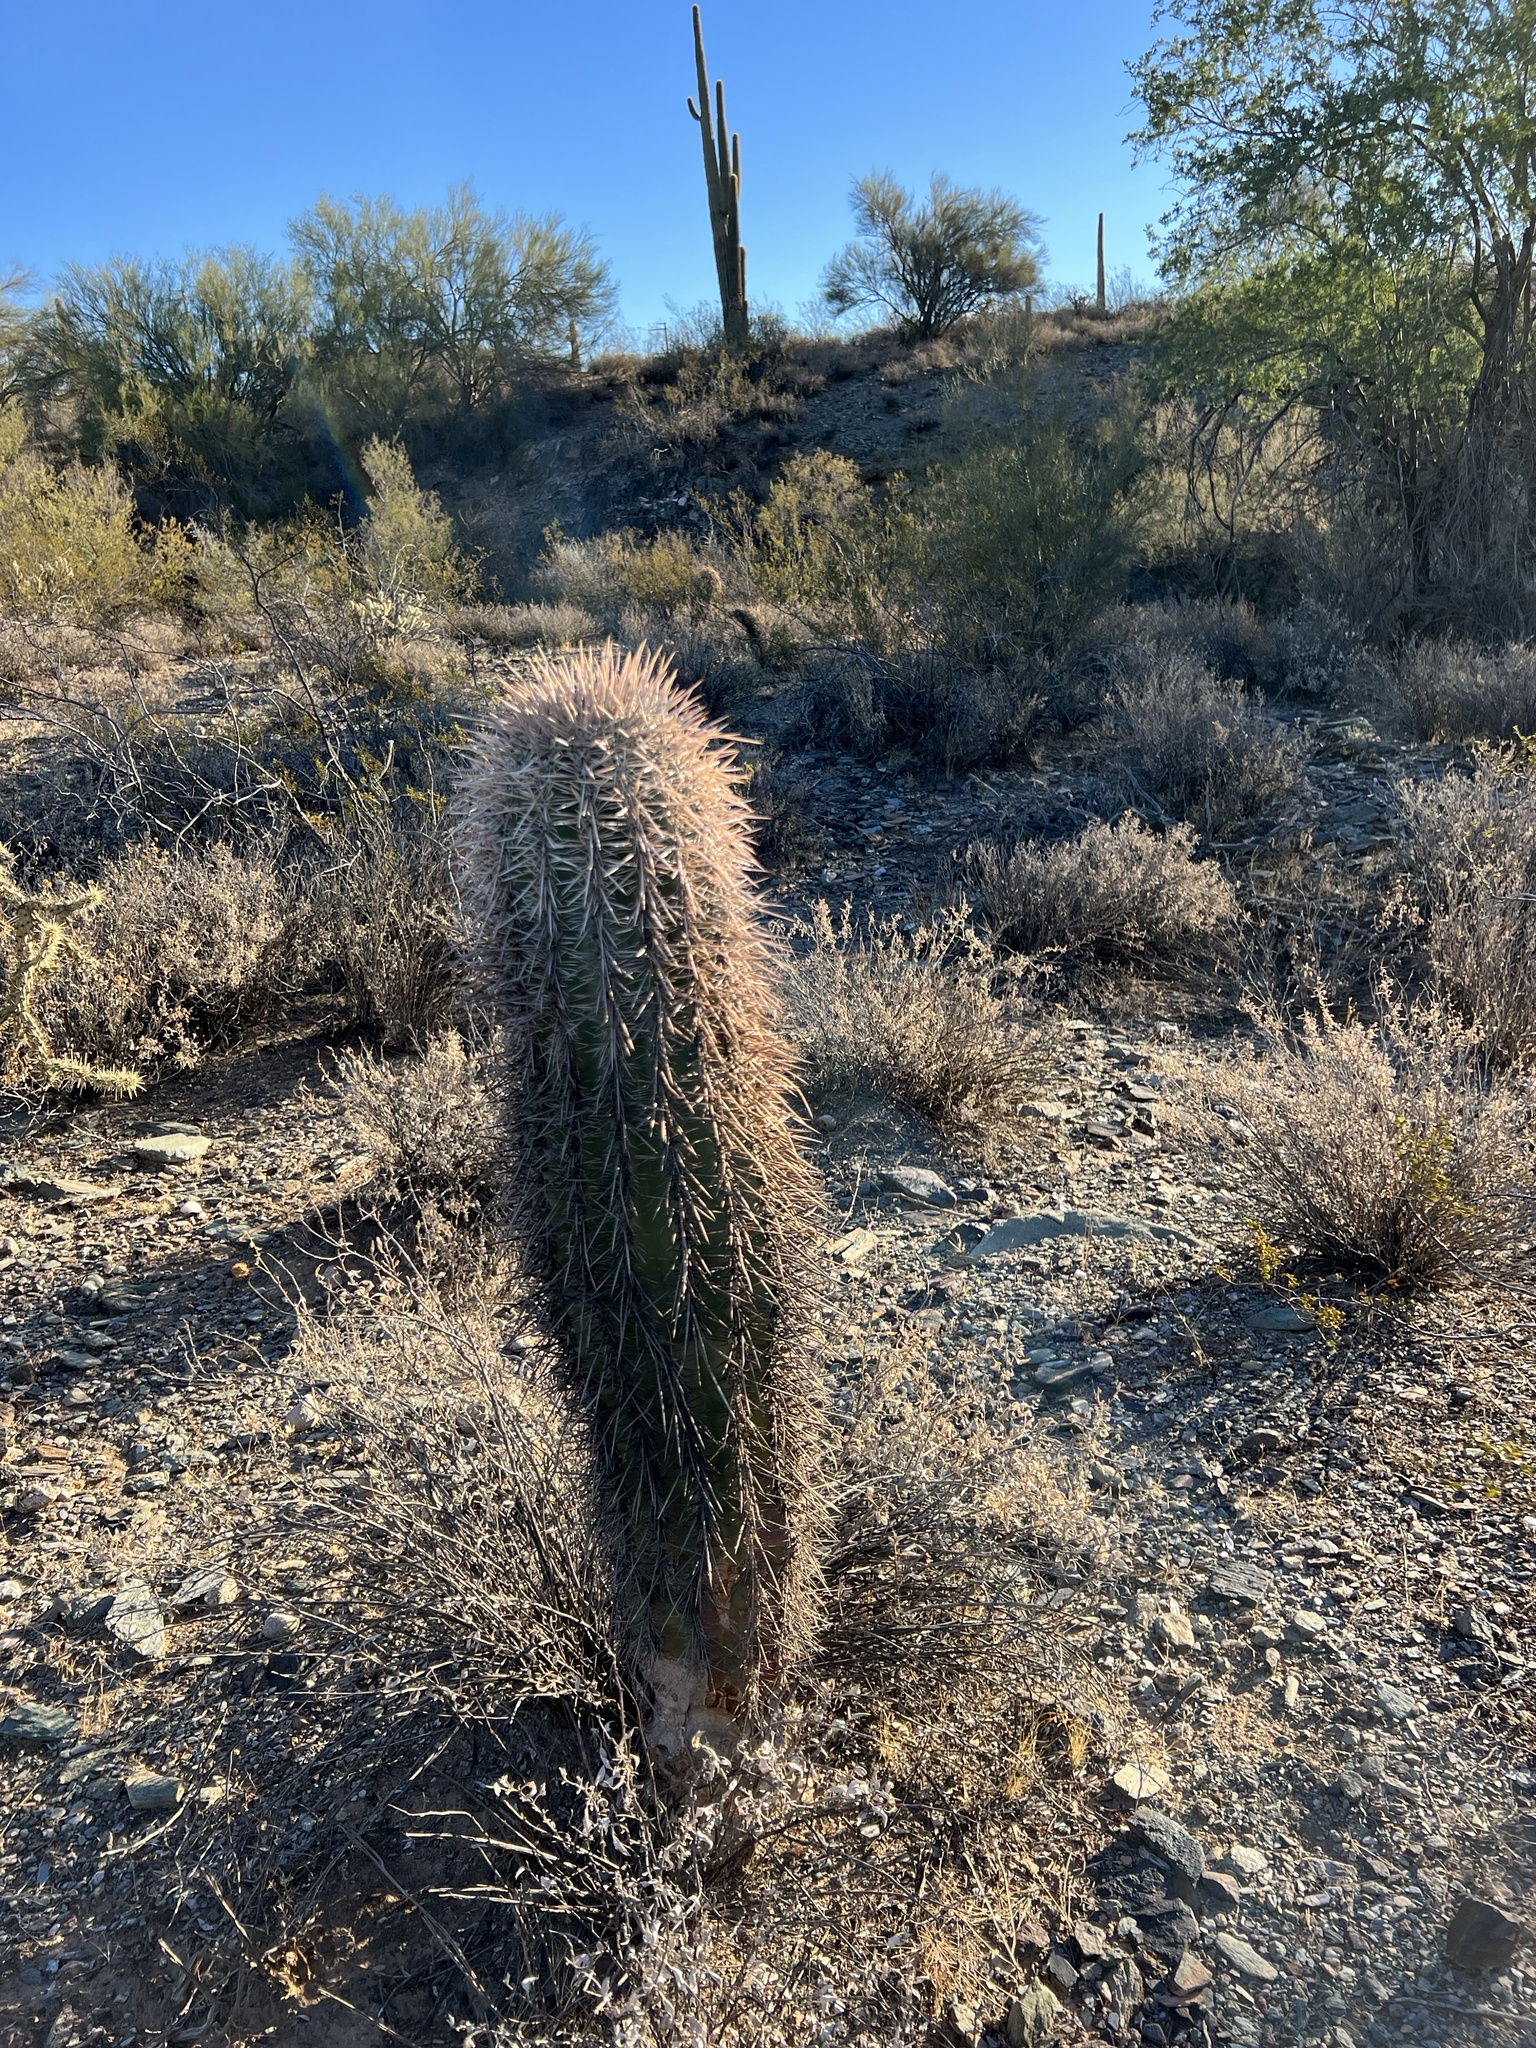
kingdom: Plantae
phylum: Tracheophyta
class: Magnoliopsida
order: Caryophyllales
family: Cactaceae
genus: Carnegiea
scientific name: Carnegiea gigantea
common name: Saguaro
